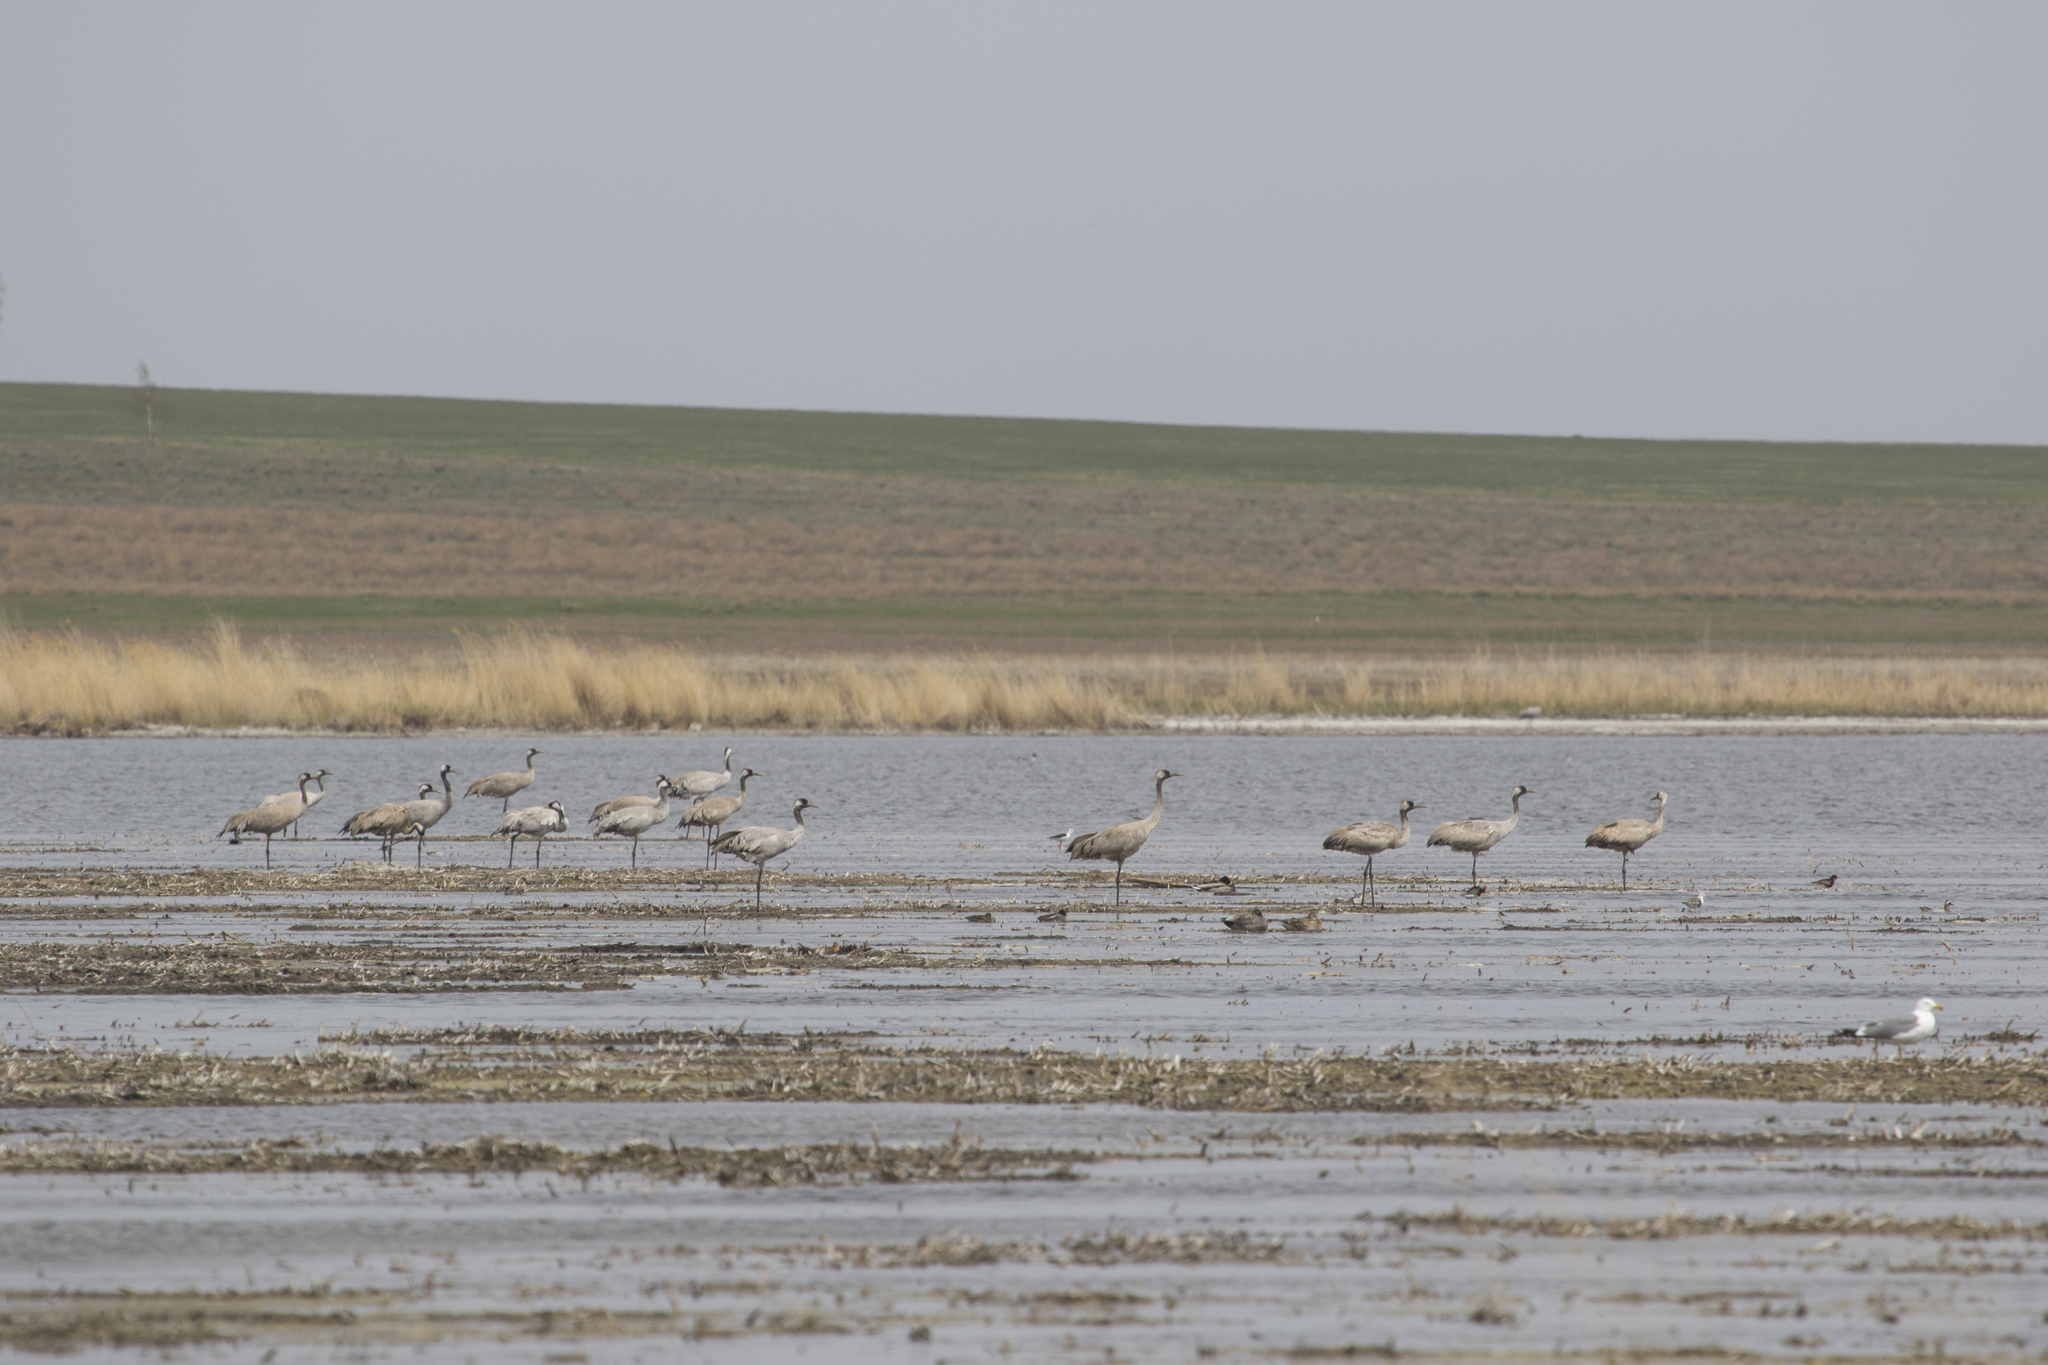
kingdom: Animalia
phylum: Chordata
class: Aves
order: Gruiformes
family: Gruidae
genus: Grus
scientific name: Grus grus
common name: Common crane
